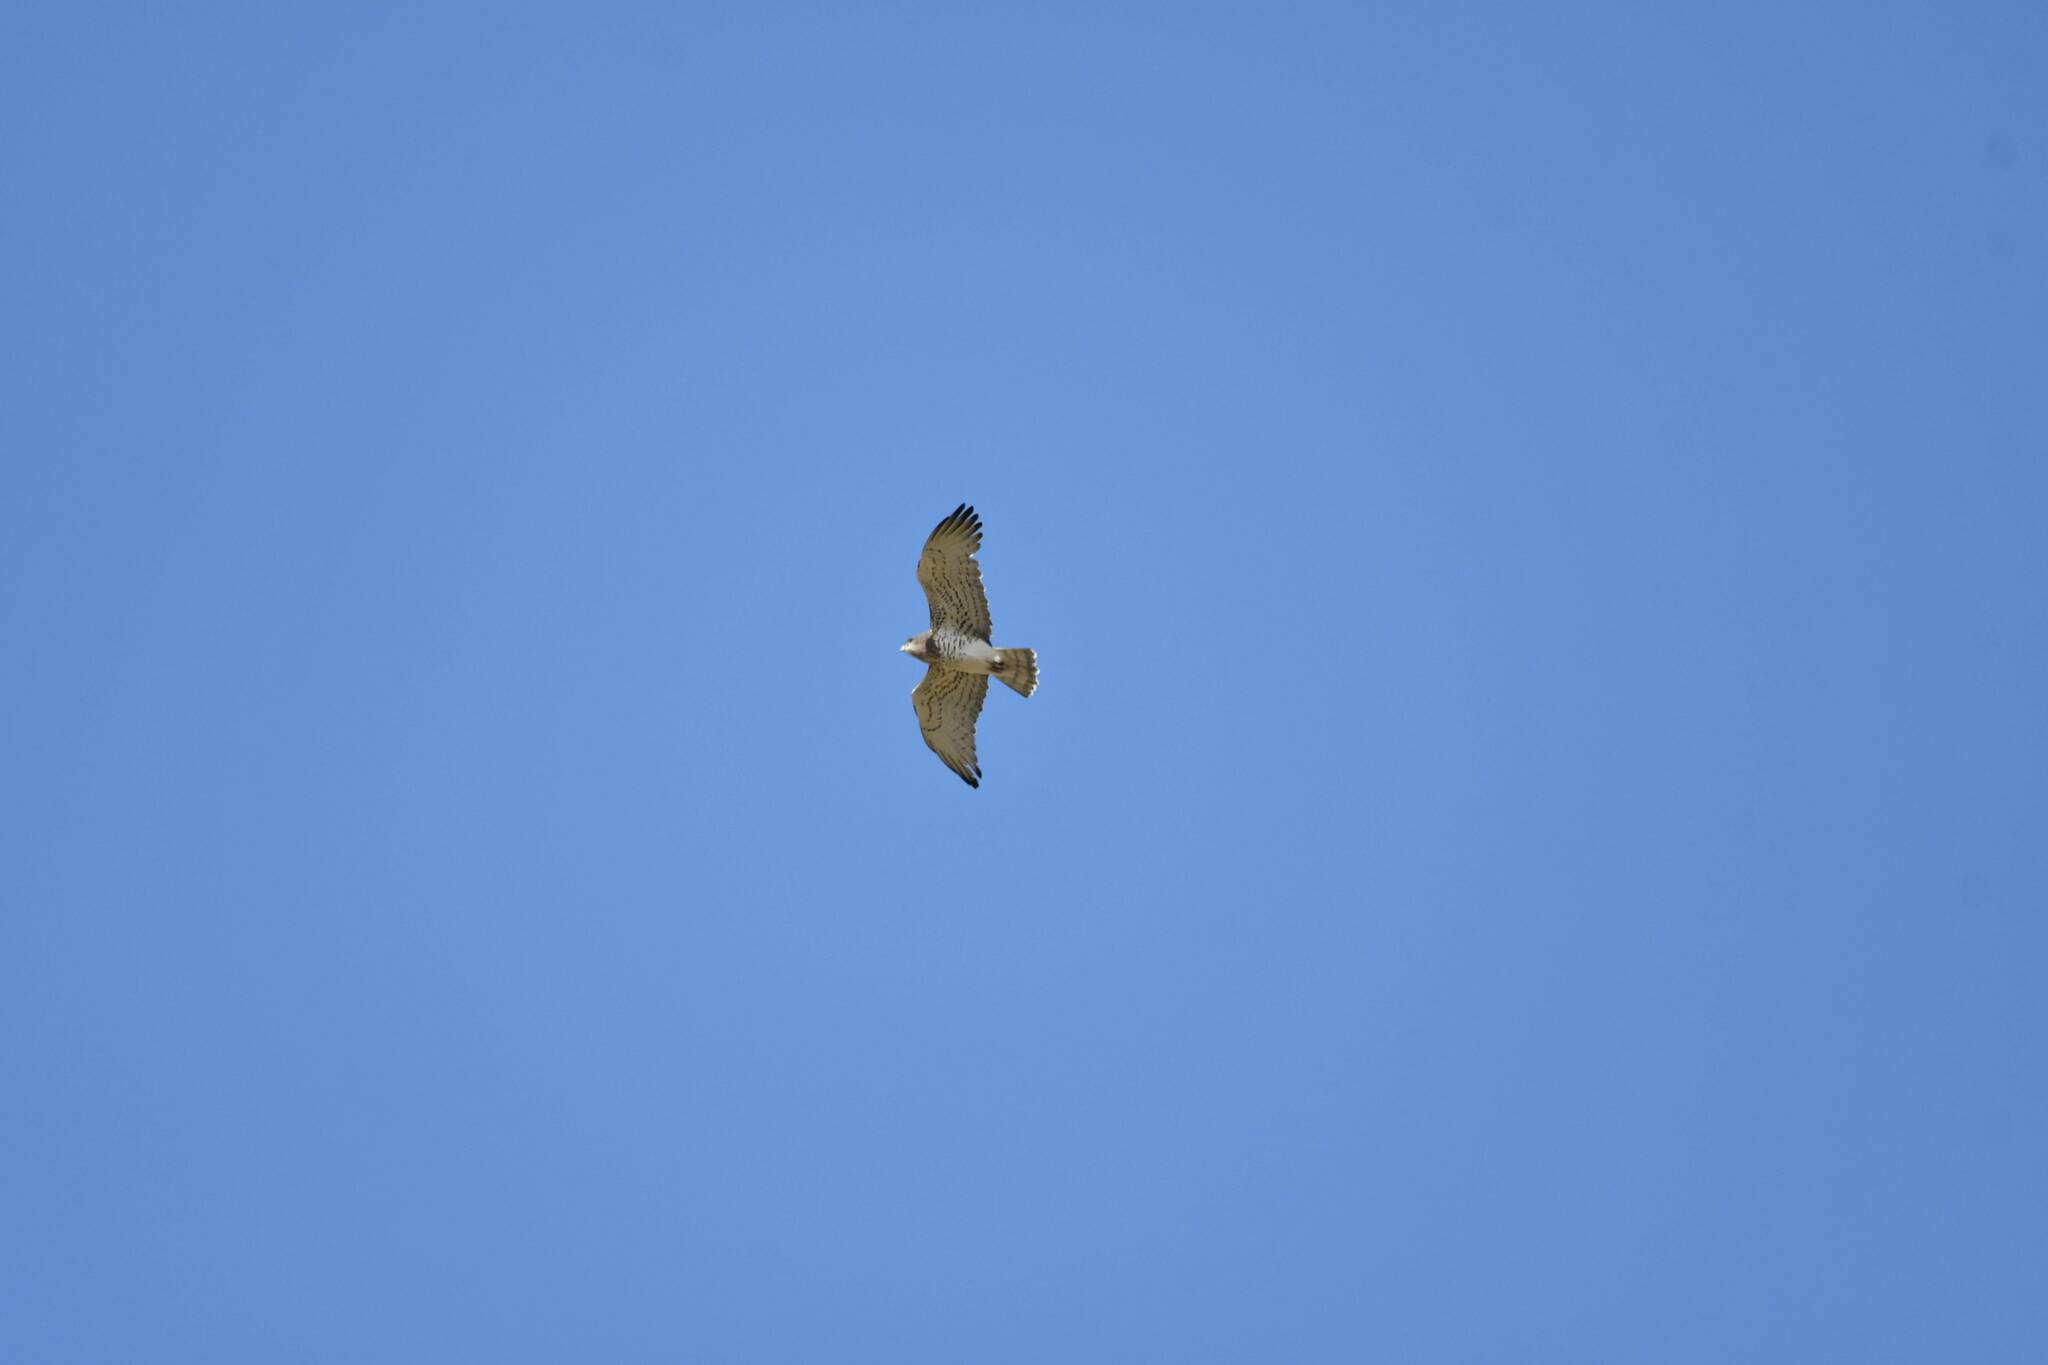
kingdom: Animalia
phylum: Chordata
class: Aves
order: Accipitriformes
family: Accipitridae
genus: Circaetus
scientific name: Circaetus gallicus
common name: Short-toed snake eagle
